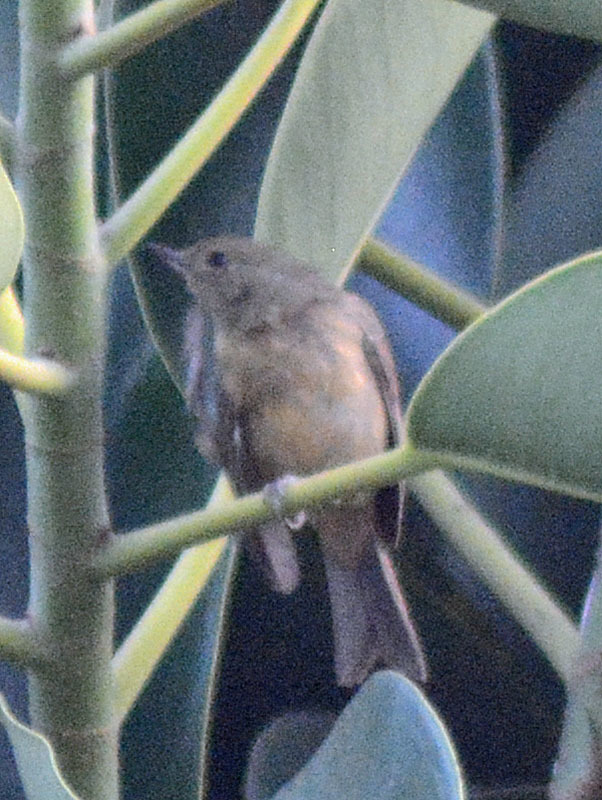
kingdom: Animalia
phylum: Chordata
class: Aves
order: Passeriformes
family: Thraupidae
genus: Diglossa
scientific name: Diglossa baritula
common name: Cinnamon-bellied flowerpiercer
